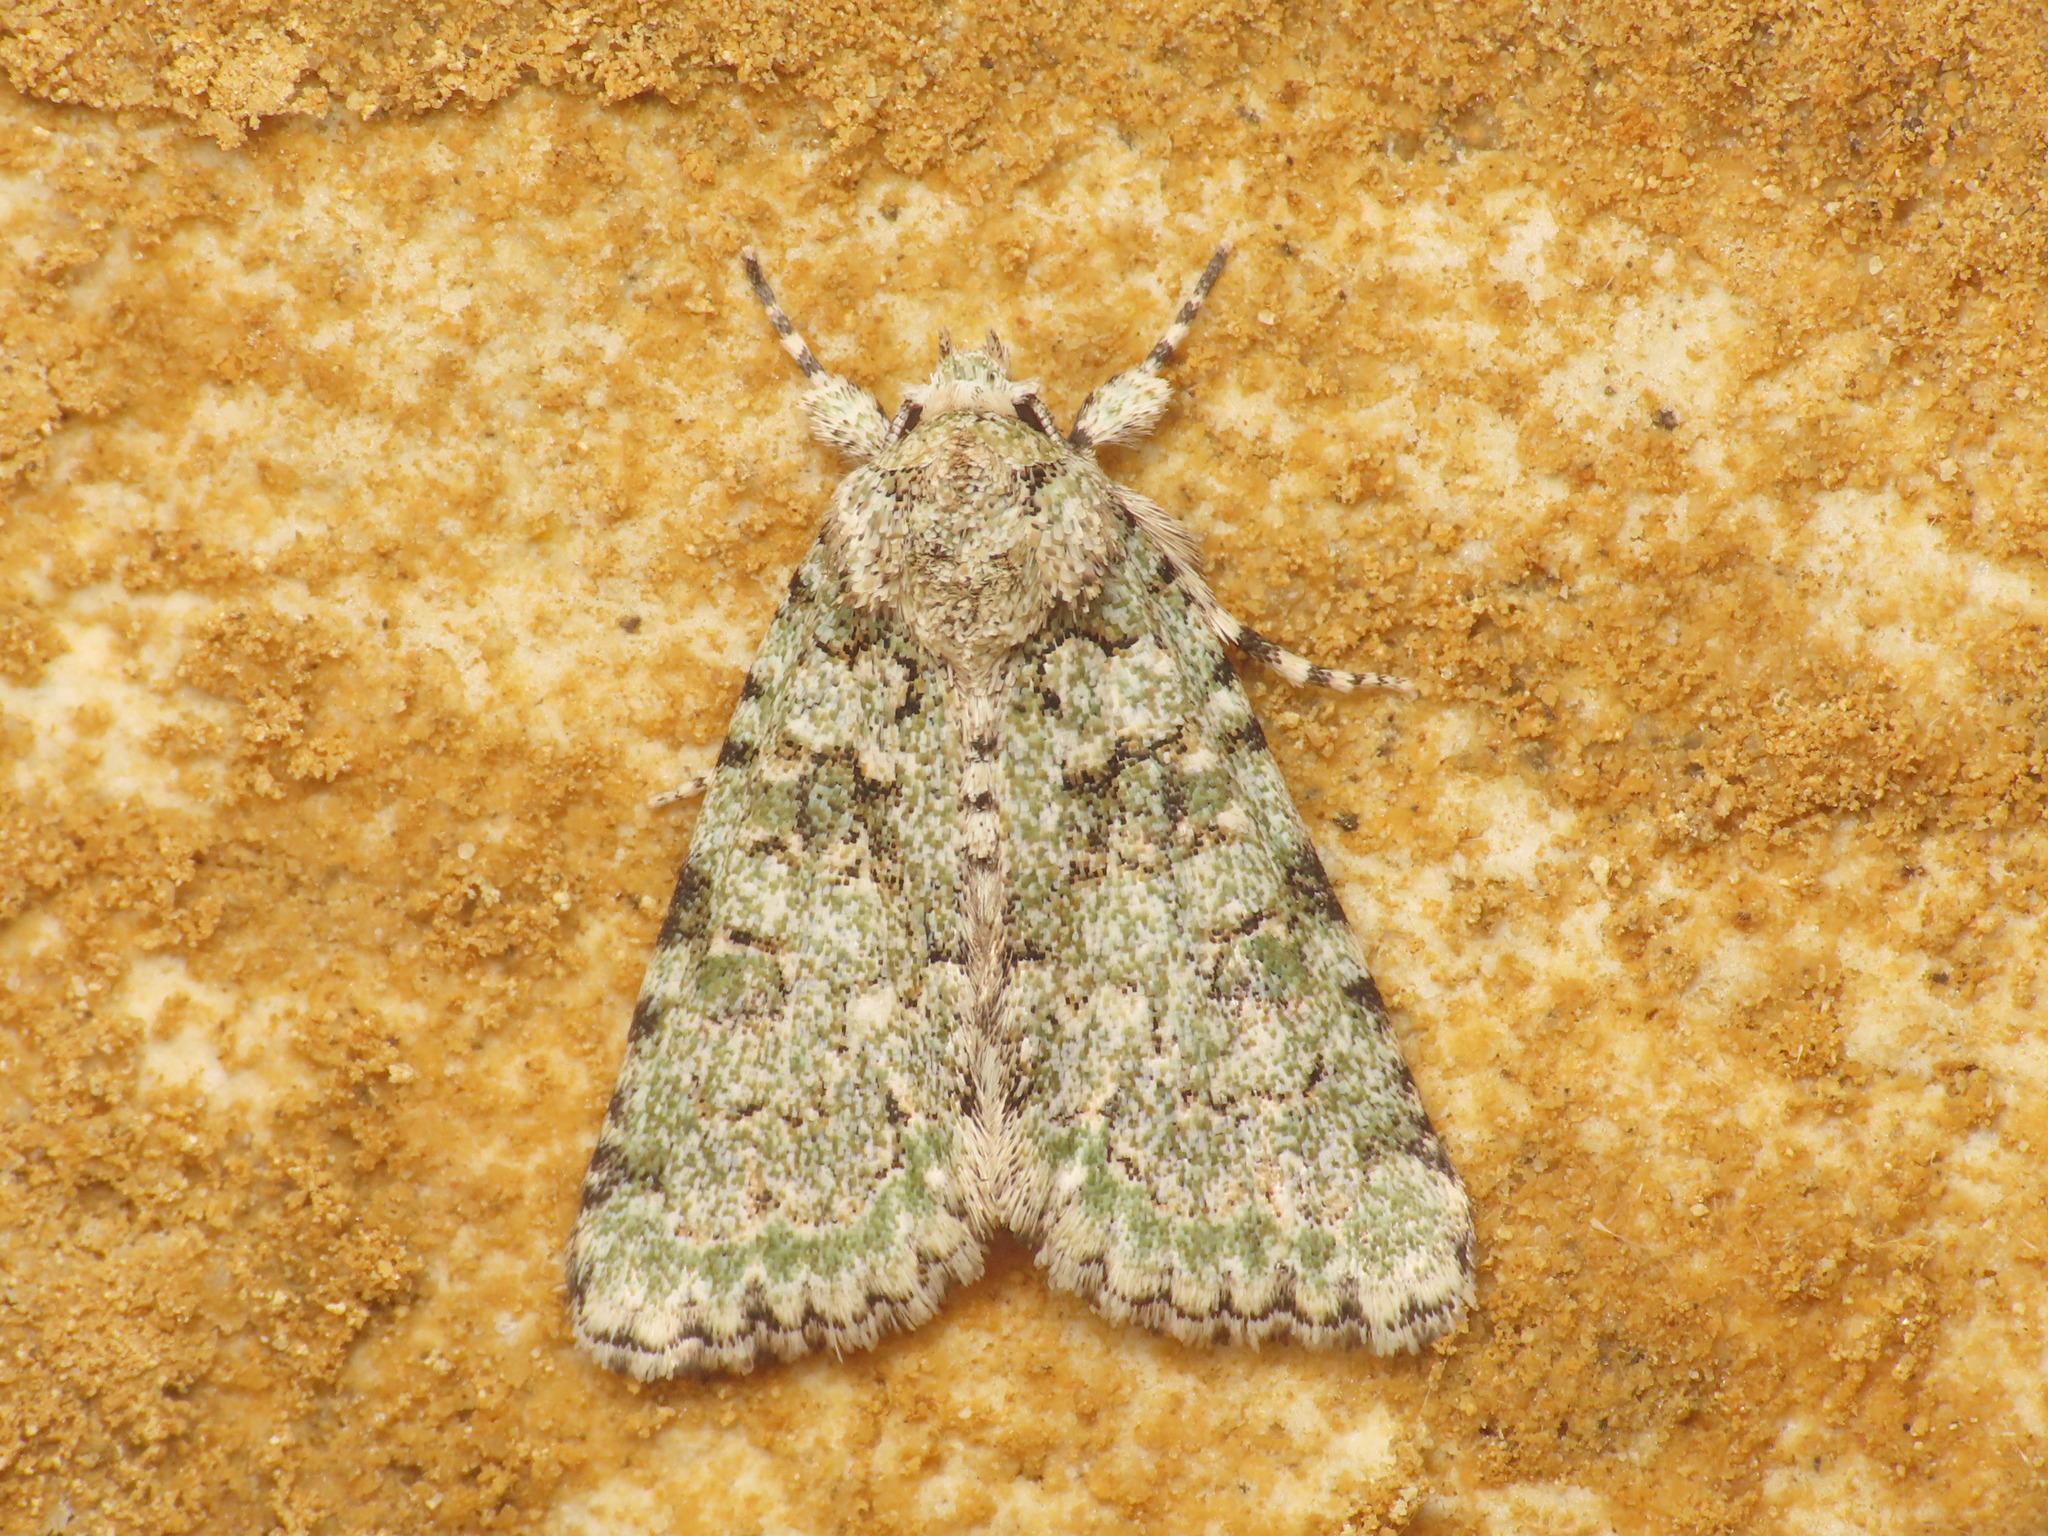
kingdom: Animalia
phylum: Arthropoda
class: Insecta
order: Lepidoptera
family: Noctuidae
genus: Nyctobrya
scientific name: Nyctobrya muralis
